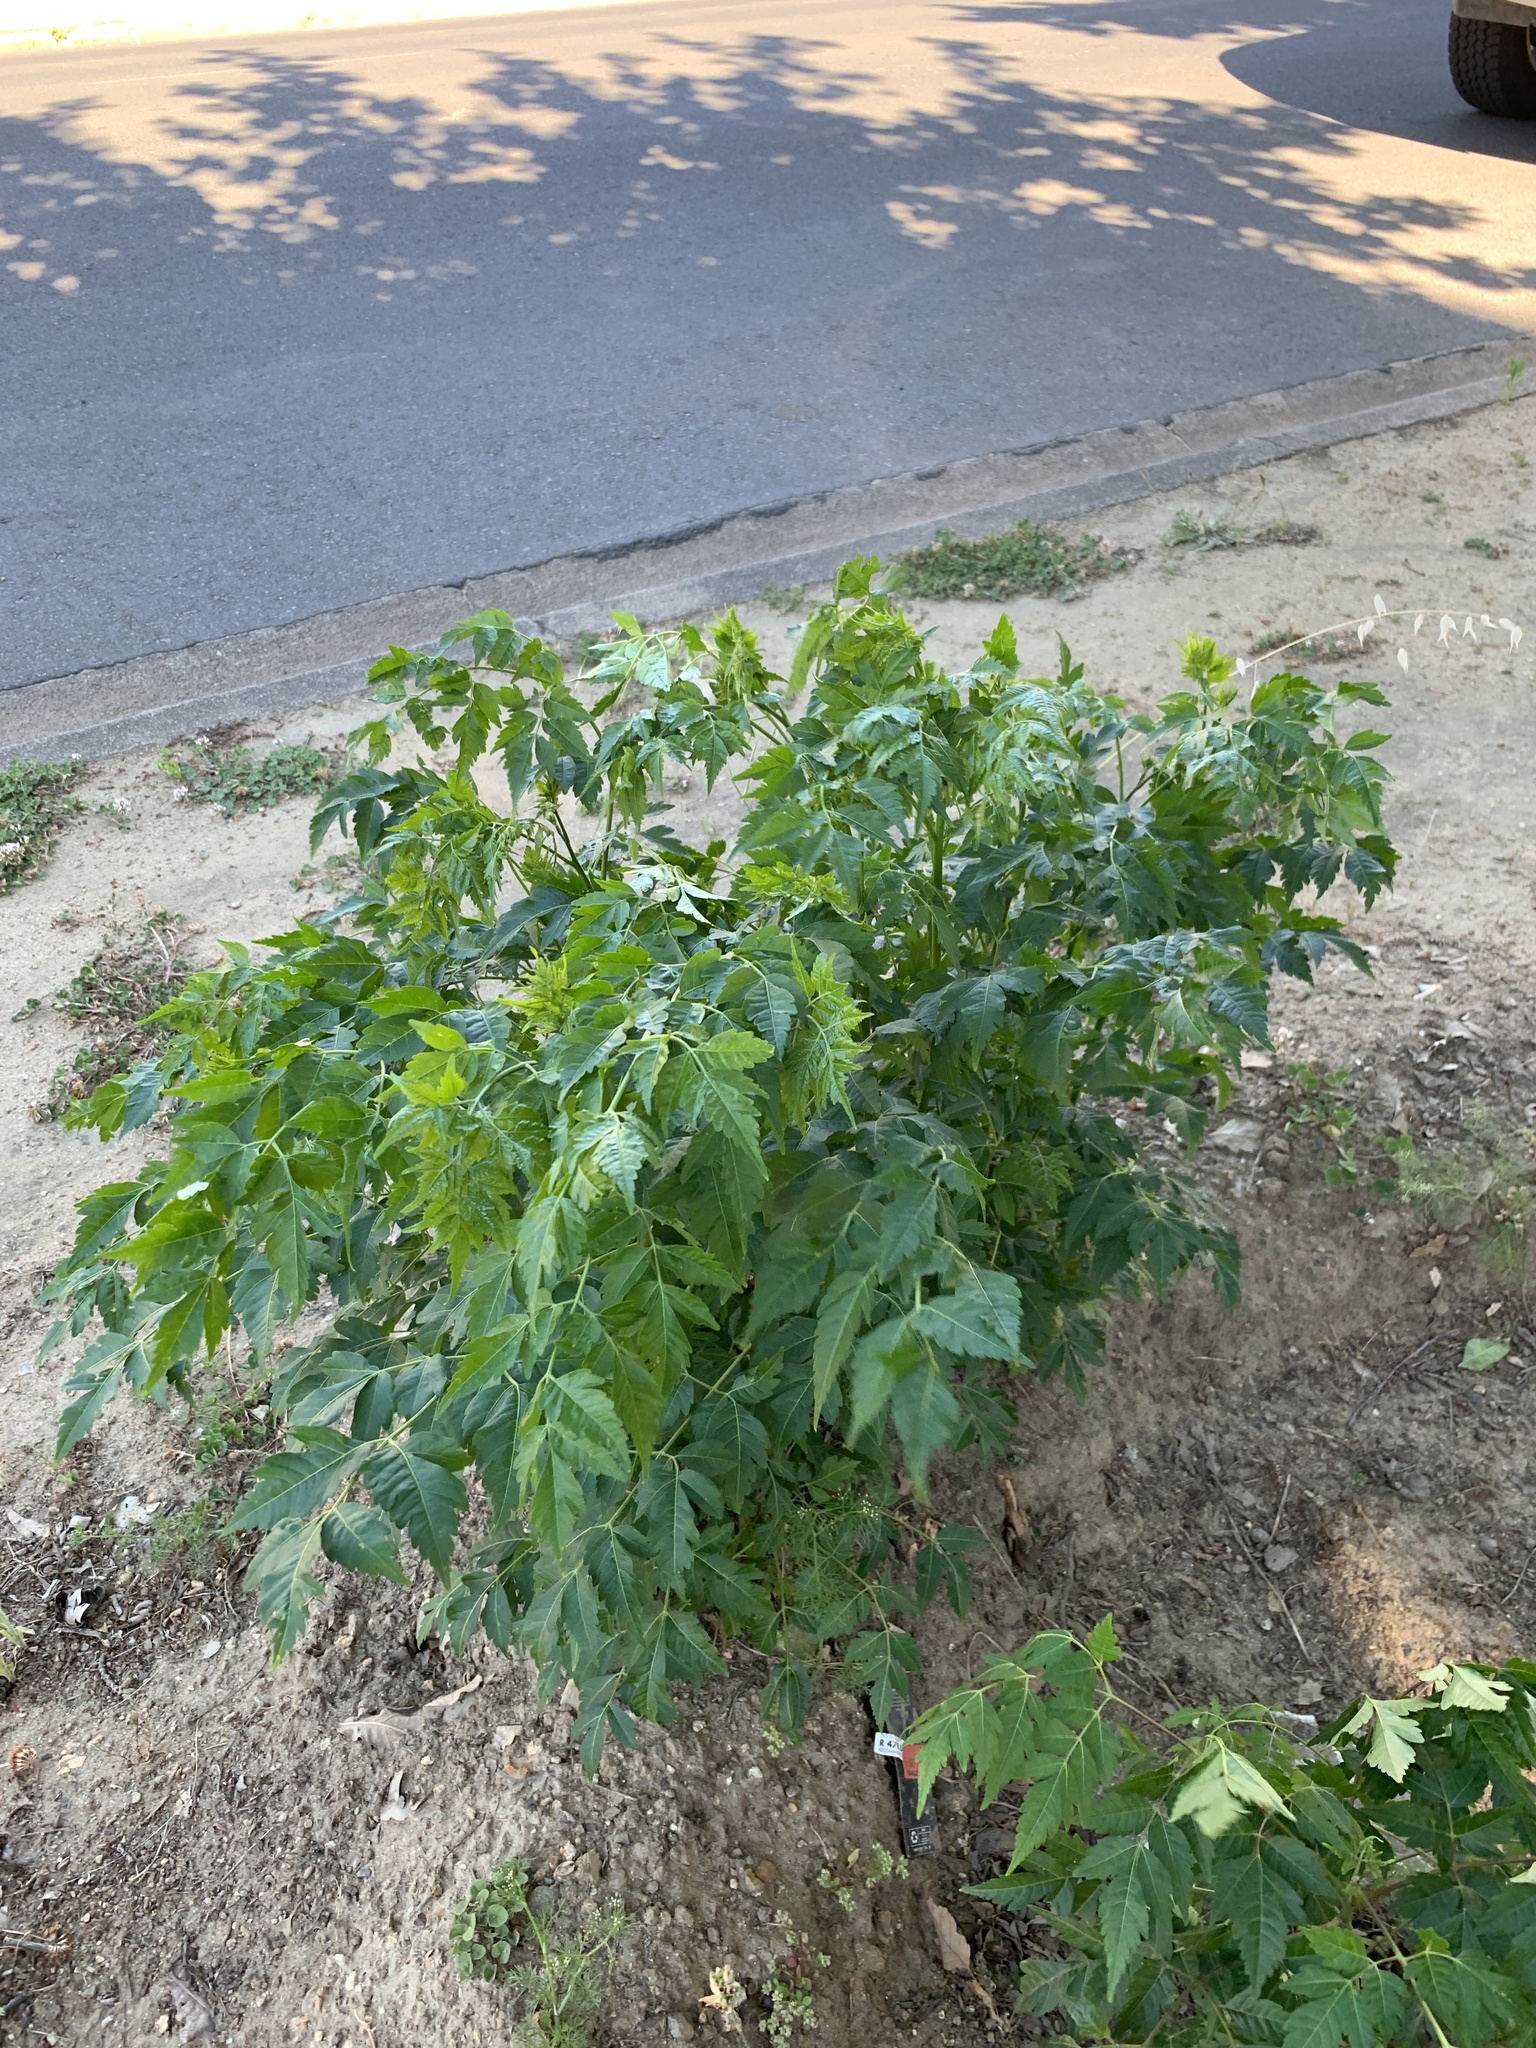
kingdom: Plantae
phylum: Tracheophyta
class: Magnoliopsida
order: Sapindales
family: Meliaceae
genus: Melia
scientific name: Melia azedarach
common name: Chinaberrytree
